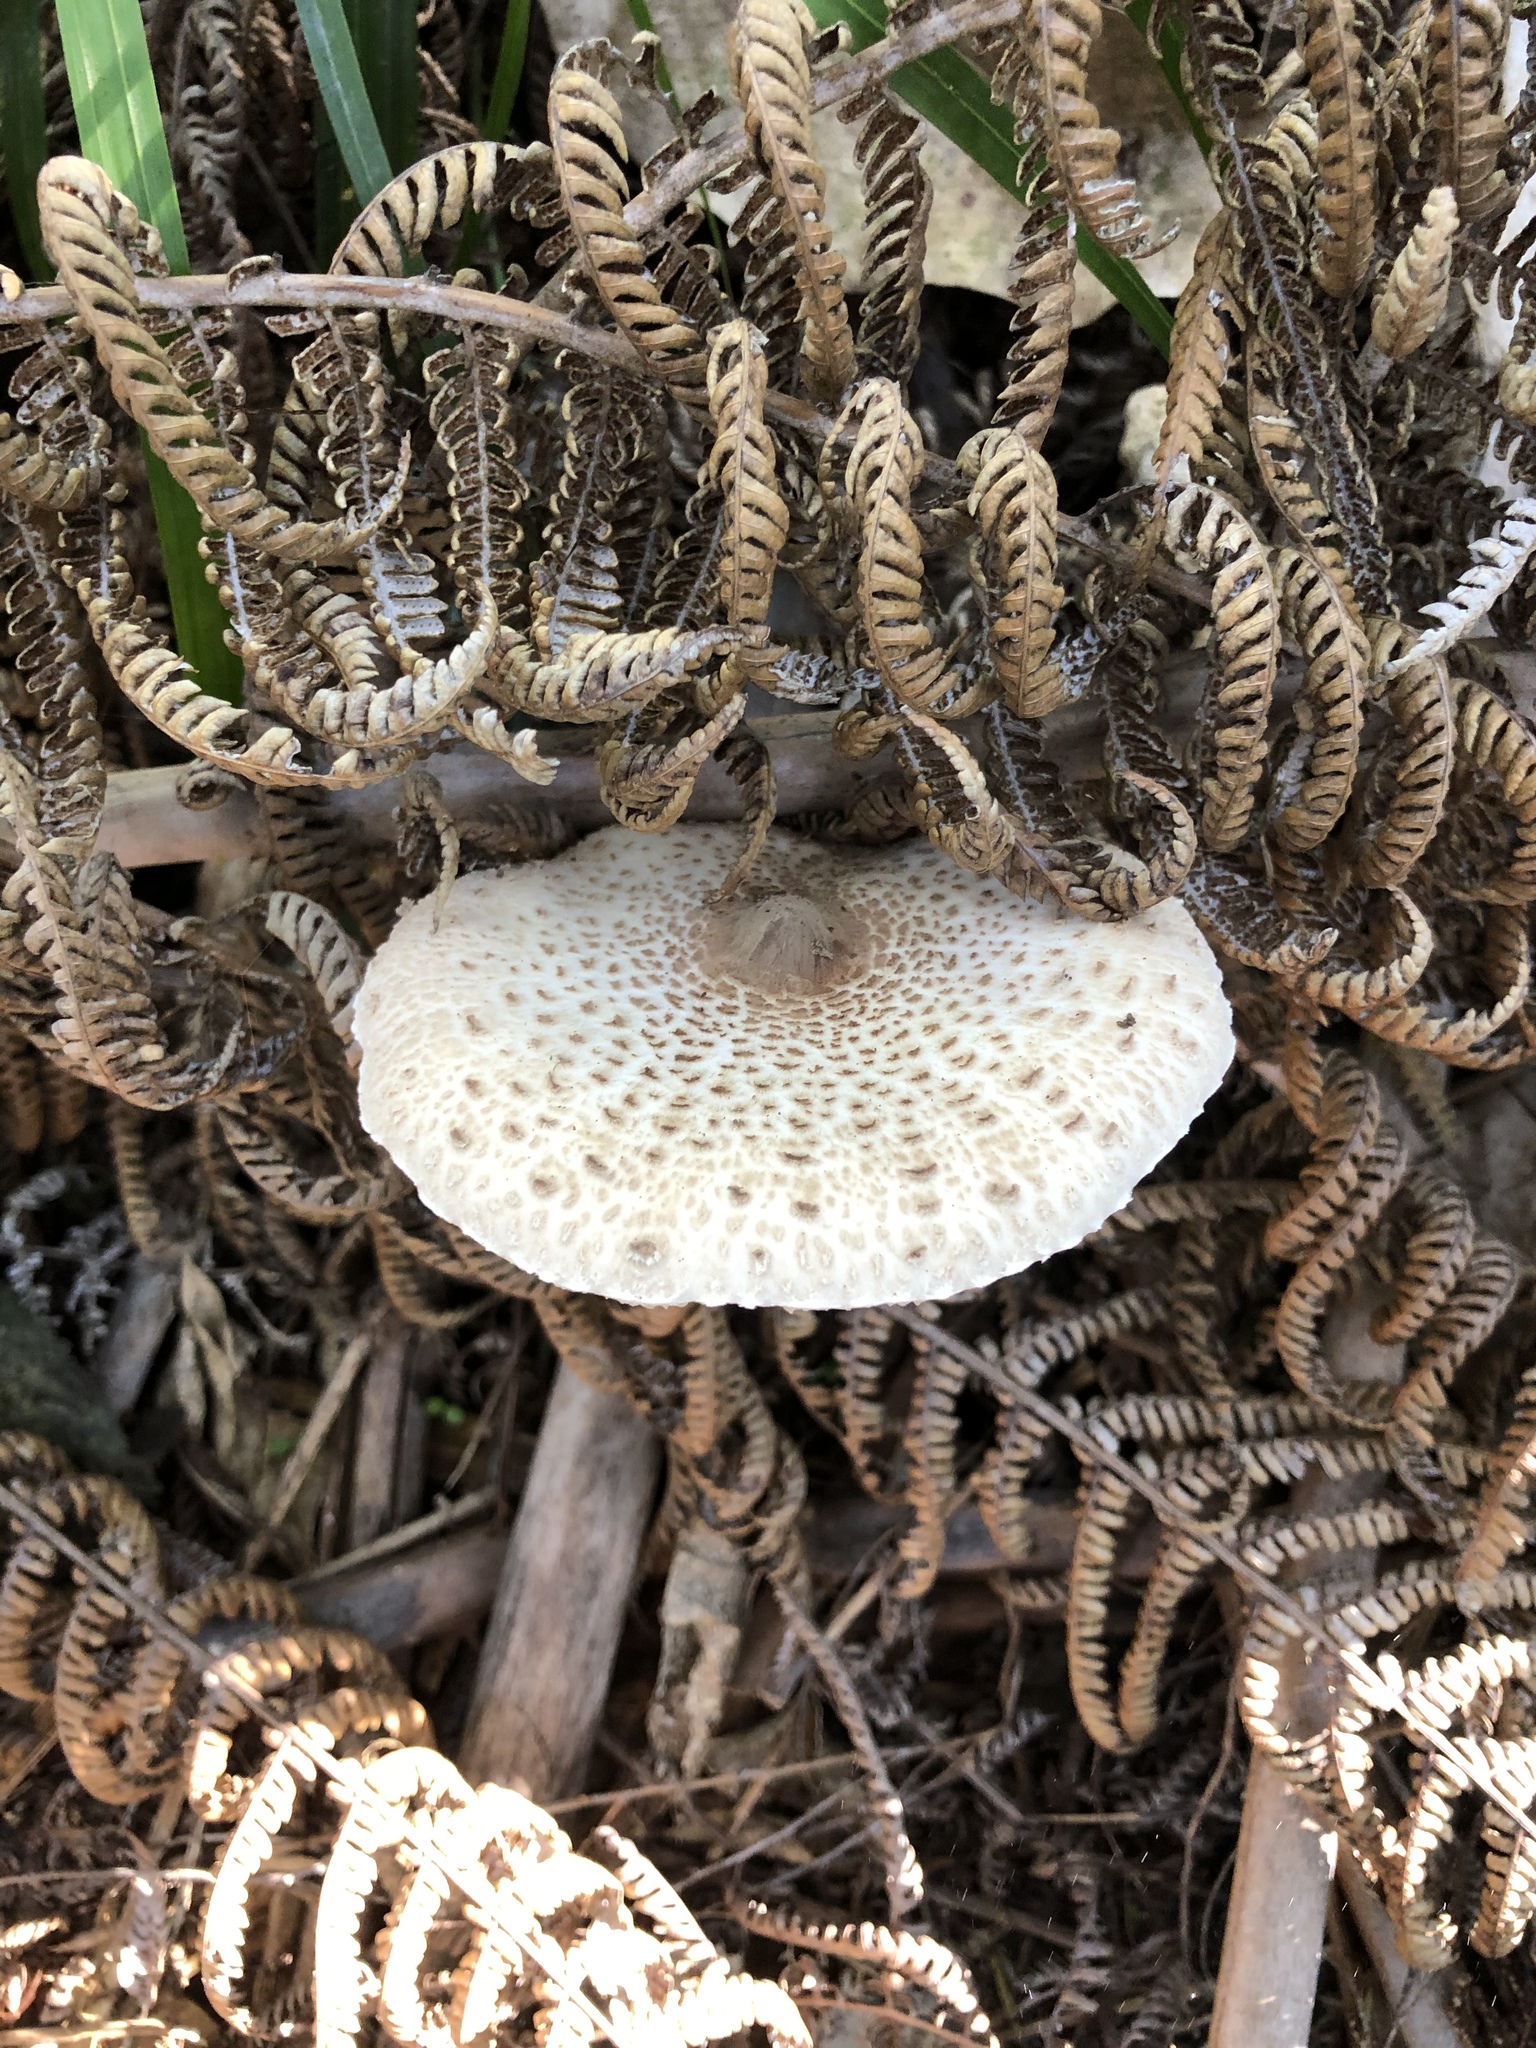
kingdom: Fungi
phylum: Basidiomycota
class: Agaricomycetes
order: Agaricales
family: Agaricaceae
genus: Macrolepiota
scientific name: Macrolepiota clelandii
